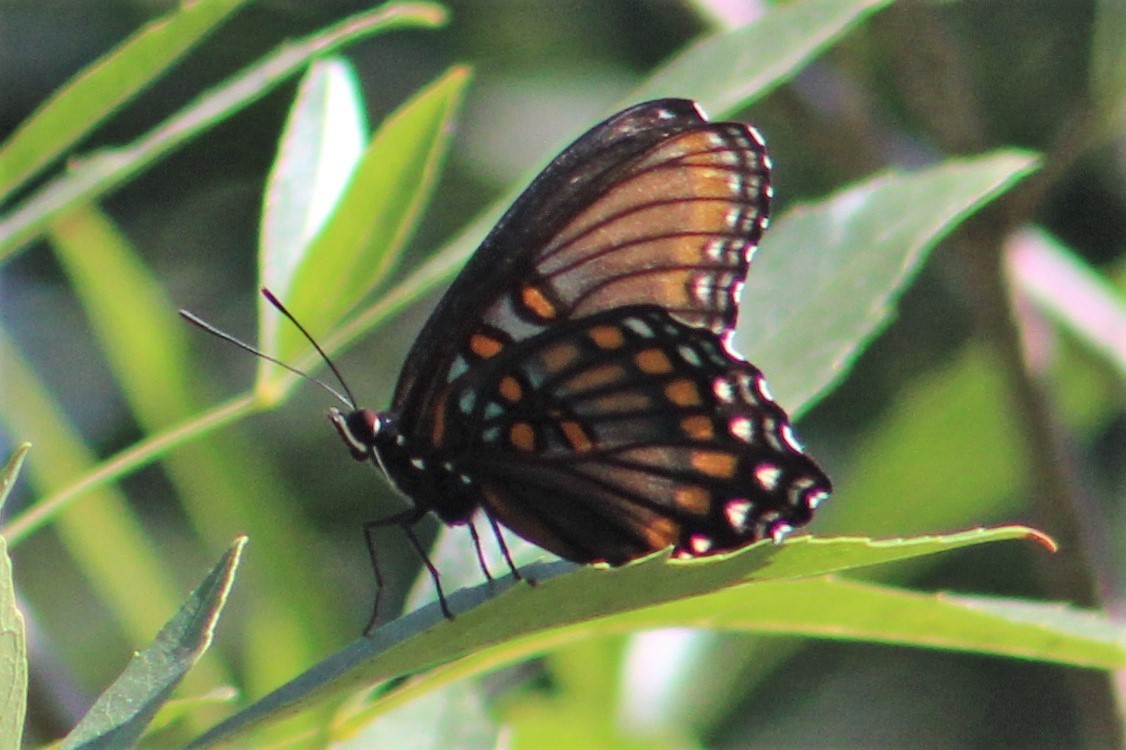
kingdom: Animalia
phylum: Arthropoda
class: Insecta
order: Lepidoptera
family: Nymphalidae
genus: Limenitis
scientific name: Limenitis arthemis
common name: Red-spotted admiral
